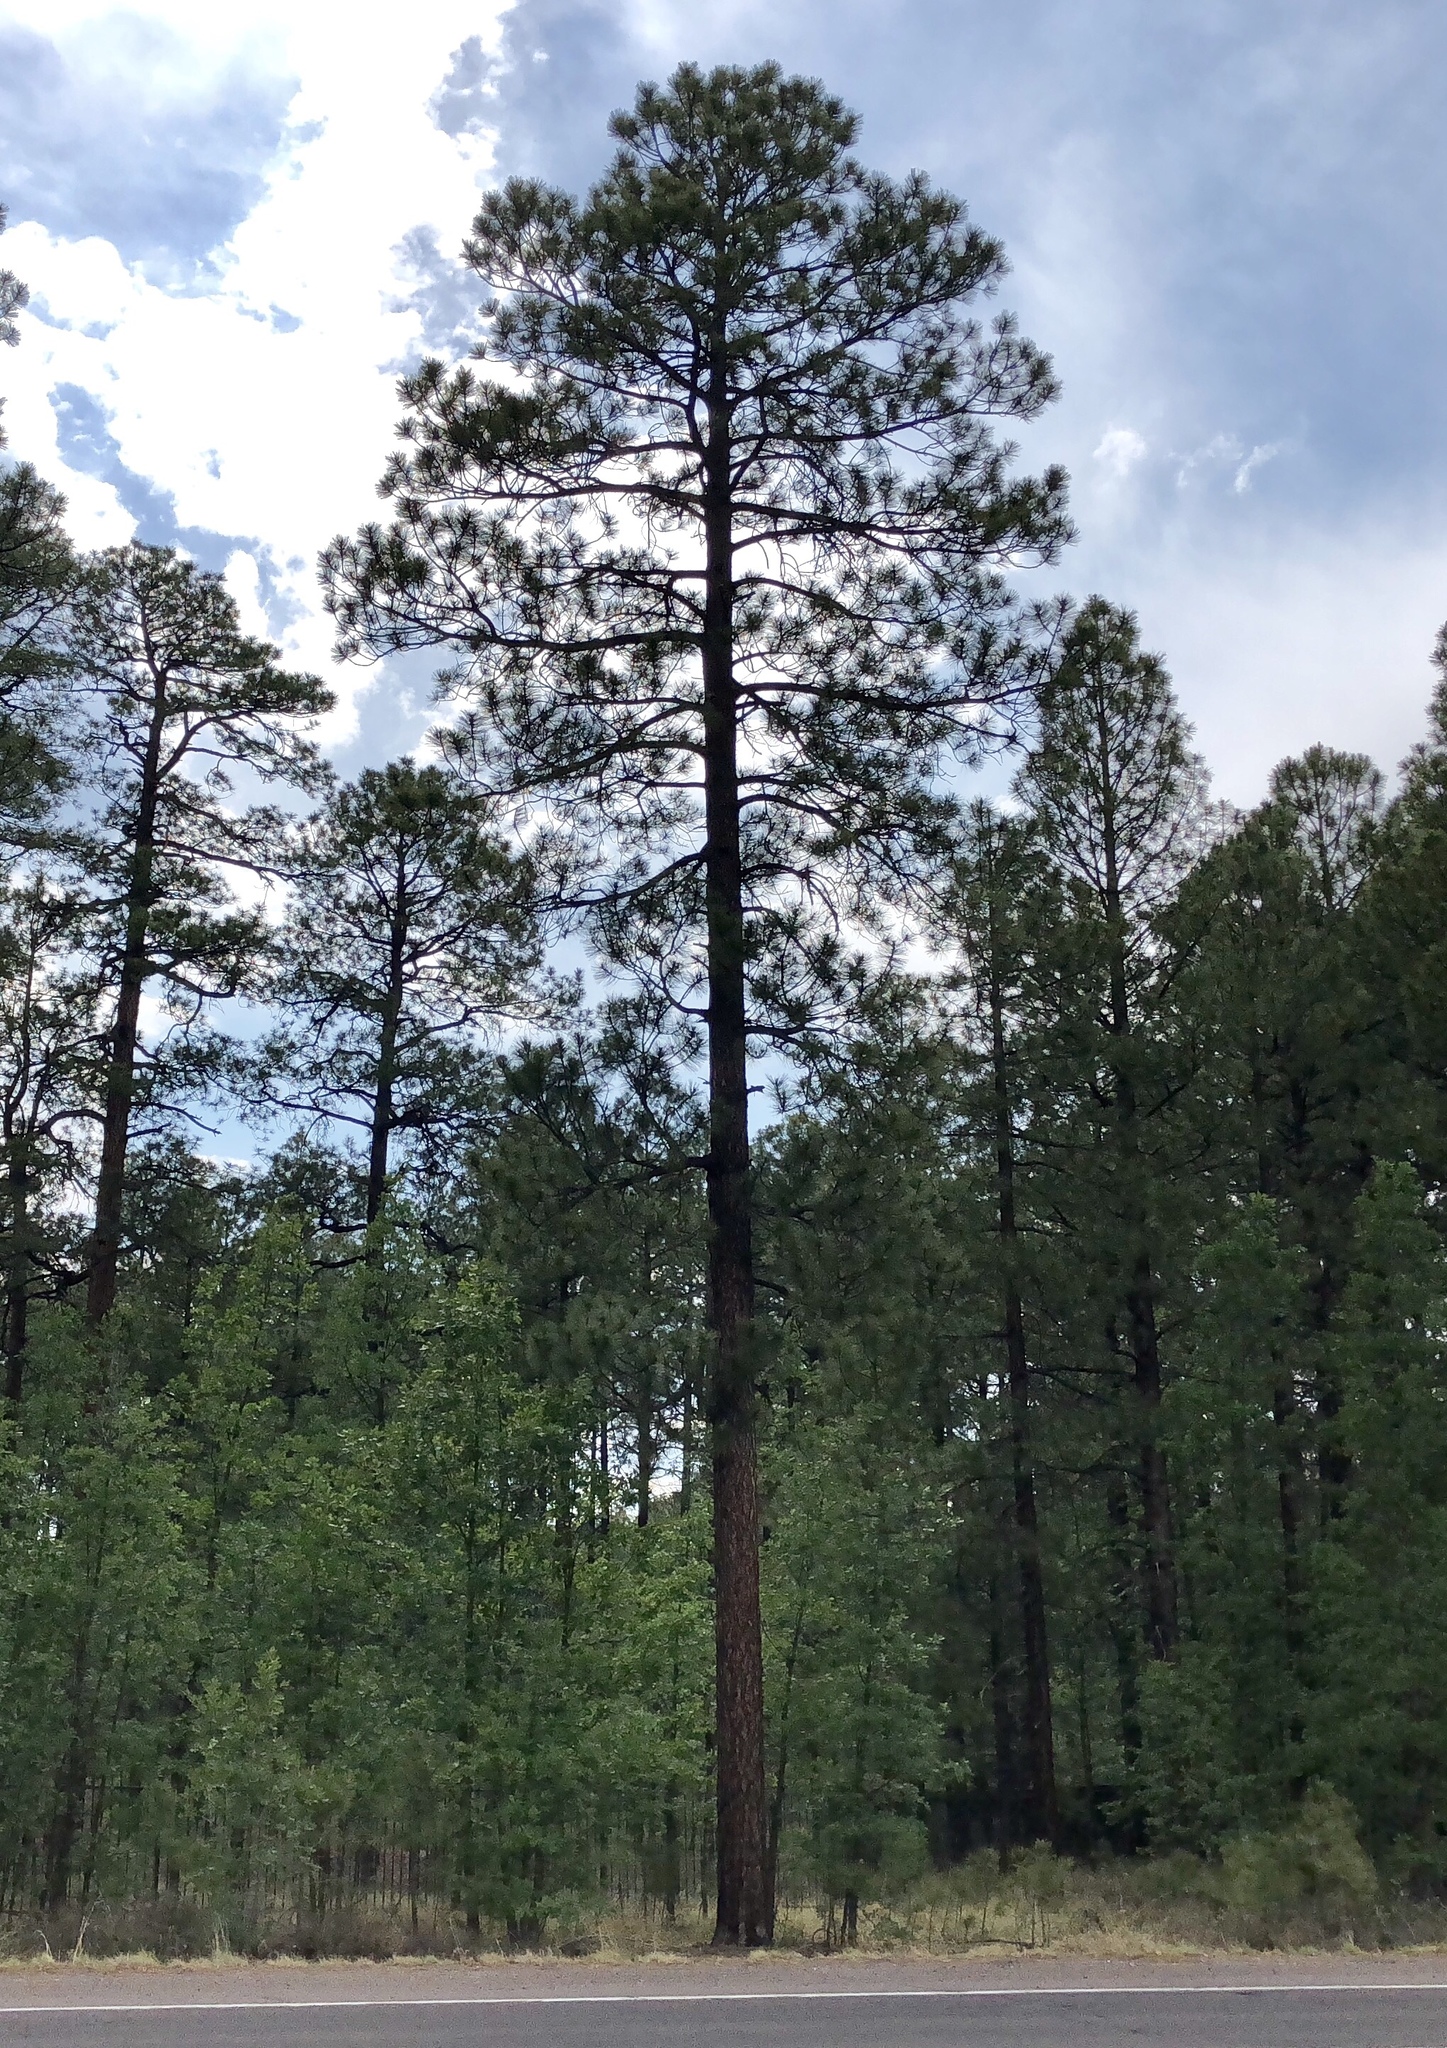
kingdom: Plantae
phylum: Tracheophyta
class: Pinopsida
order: Pinales
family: Pinaceae
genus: Pinus
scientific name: Pinus ponderosa
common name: Western yellow-pine
